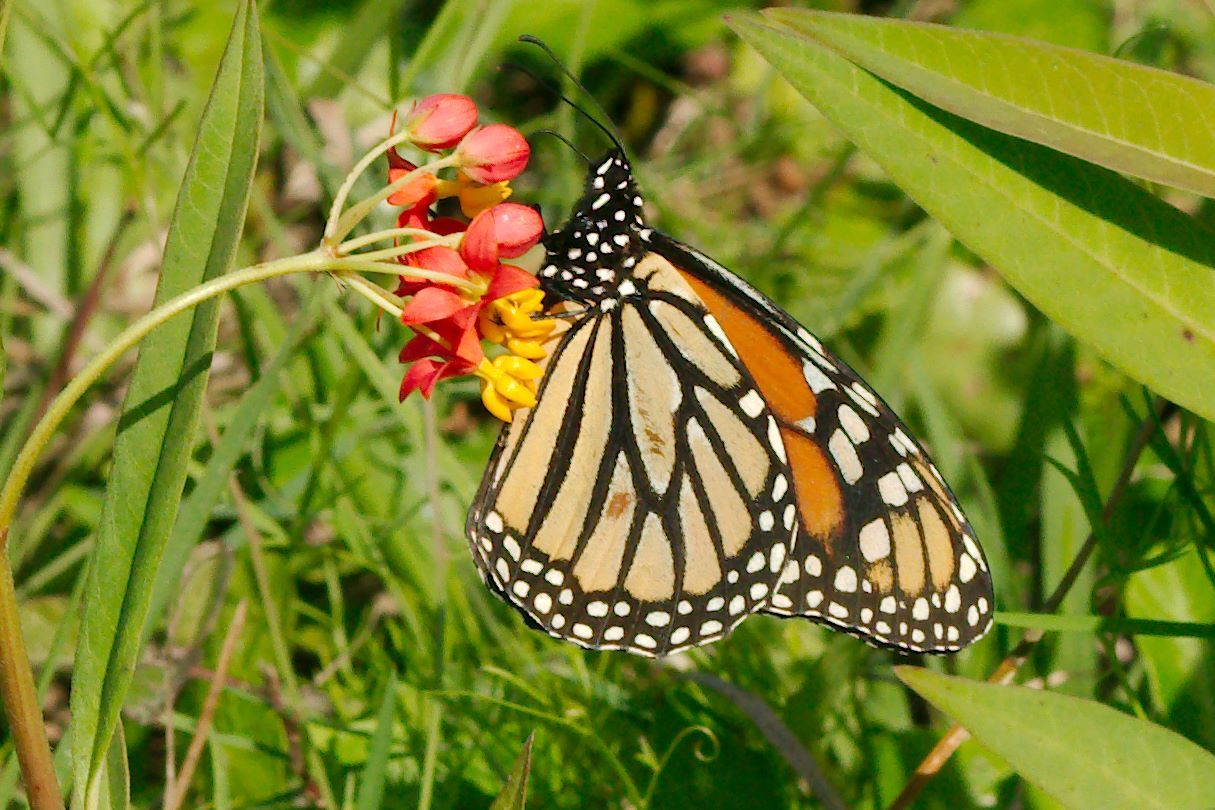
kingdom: Animalia
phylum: Arthropoda
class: Insecta
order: Lepidoptera
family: Nymphalidae
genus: Danaus
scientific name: Danaus plexippus
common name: Monarch
